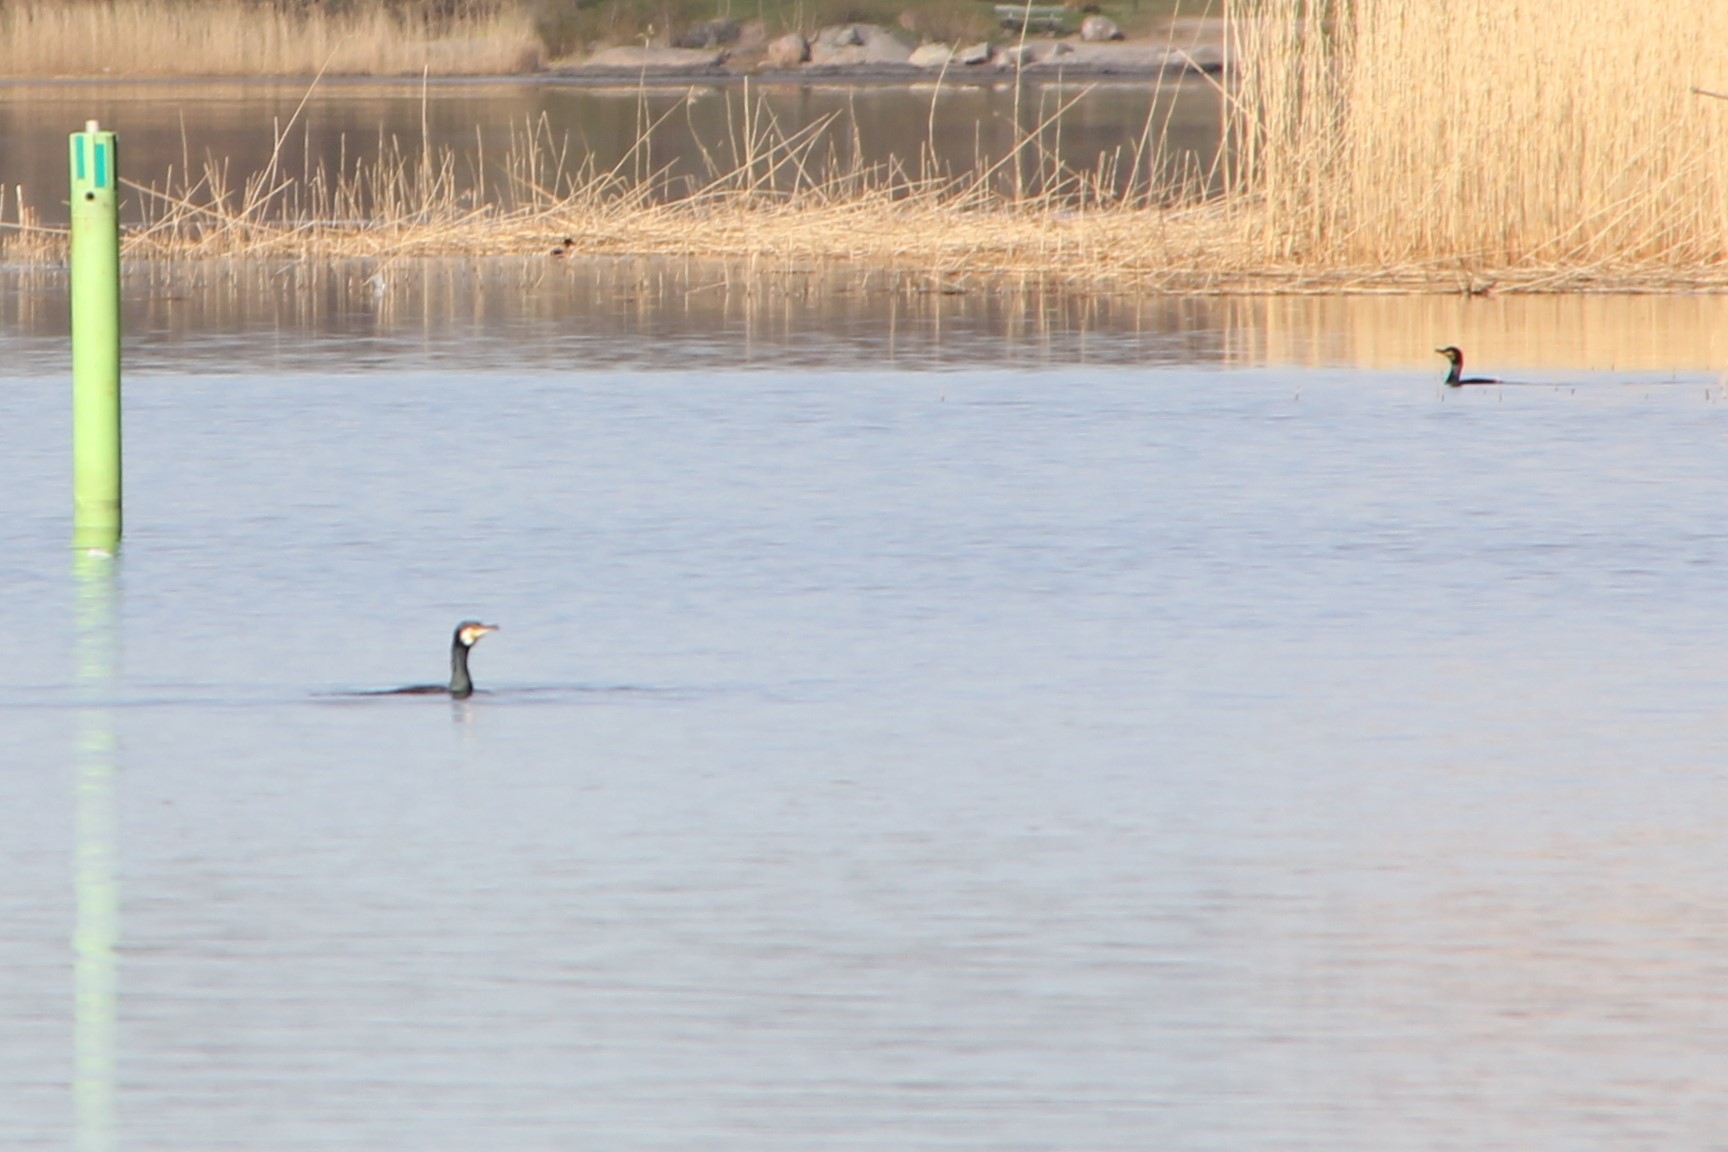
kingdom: Animalia
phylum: Chordata
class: Aves
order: Suliformes
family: Phalacrocoracidae
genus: Phalacrocorax
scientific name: Phalacrocorax carbo
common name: Great cormorant
